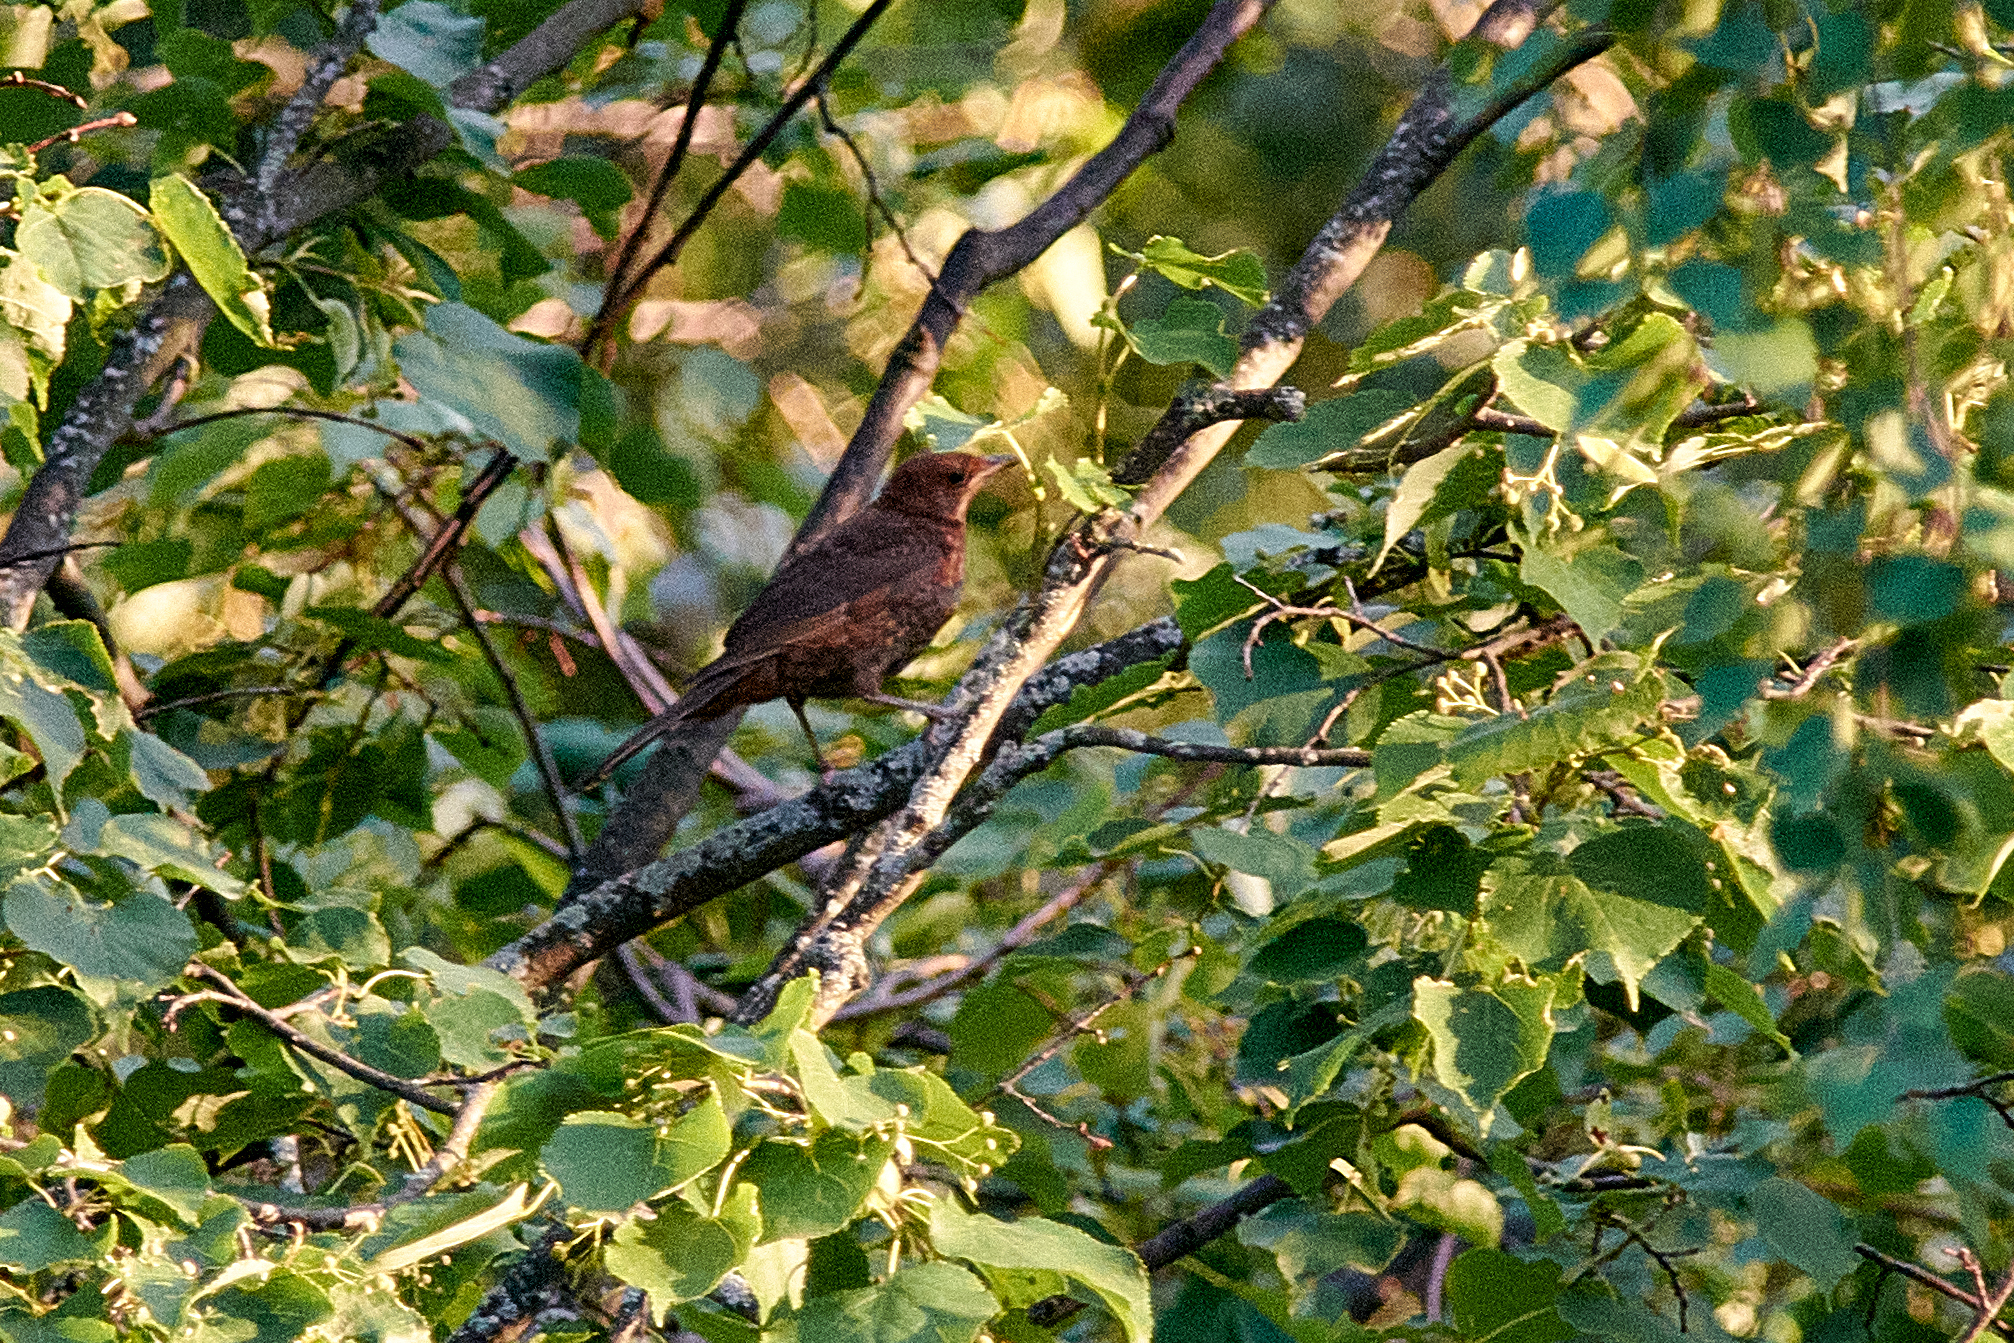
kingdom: Animalia
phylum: Chordata
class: Aves
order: Passeriformes
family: Turdidae
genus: Turdus
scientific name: Turdus merula
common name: Common blackbird
